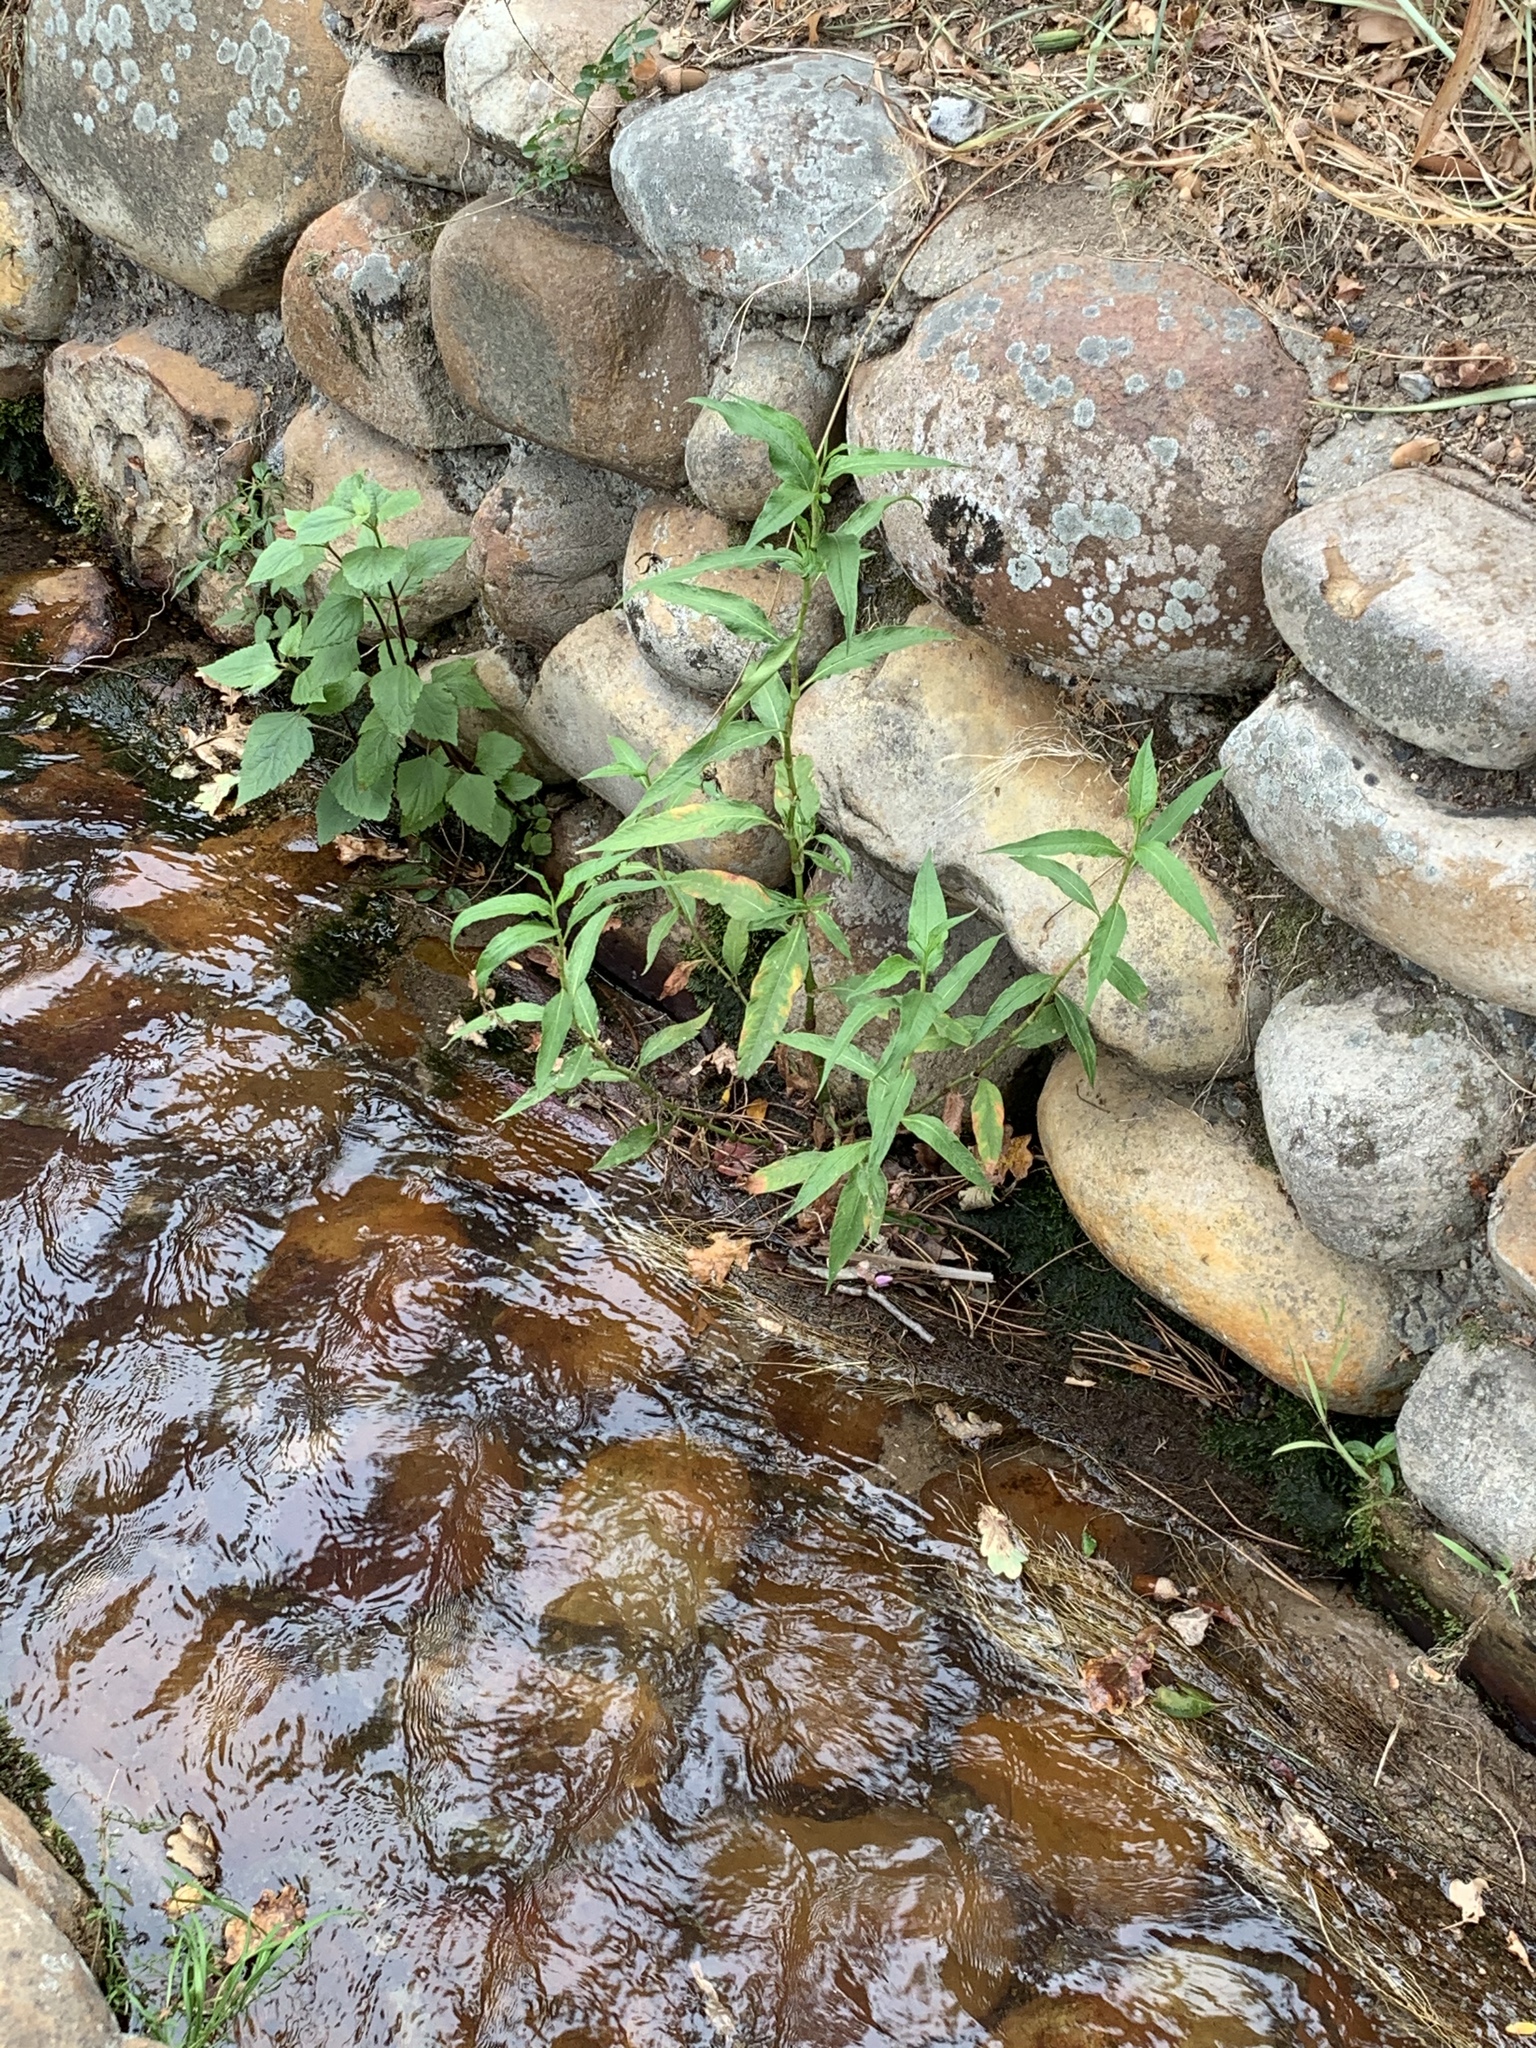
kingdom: Plantae
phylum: Tracheophyta
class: Magnoliopsida
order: Caryophyllales
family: Polygonaceae
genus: Persicaria
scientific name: Persicaria lapathifolia
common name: Curlytop knotweed
